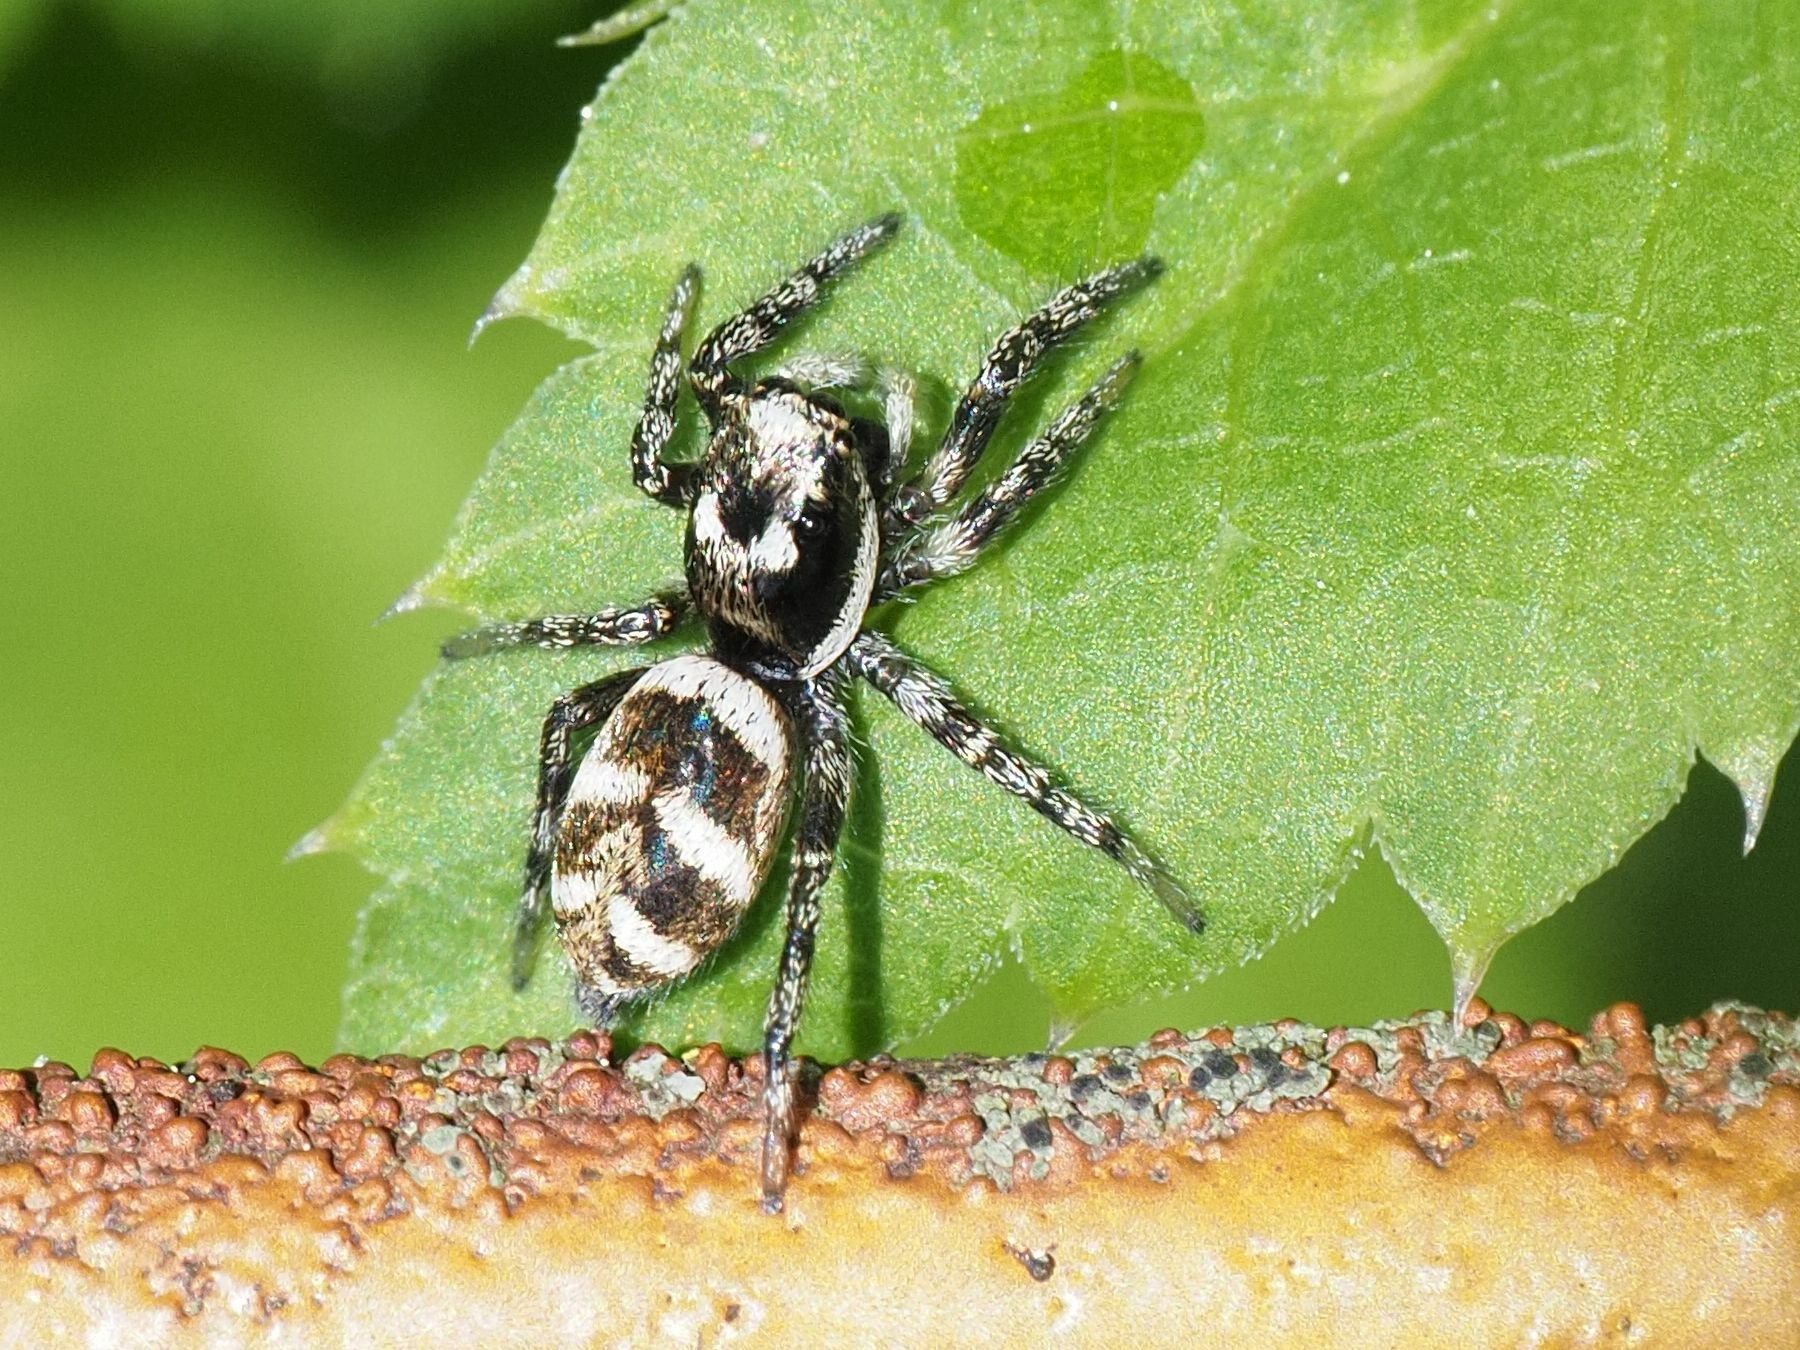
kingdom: Animalia
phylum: Arthropoda
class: Arachnida
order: Araneae
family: Salticidae
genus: Salticus
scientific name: Salticus scenicus
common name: Zebra jumper
